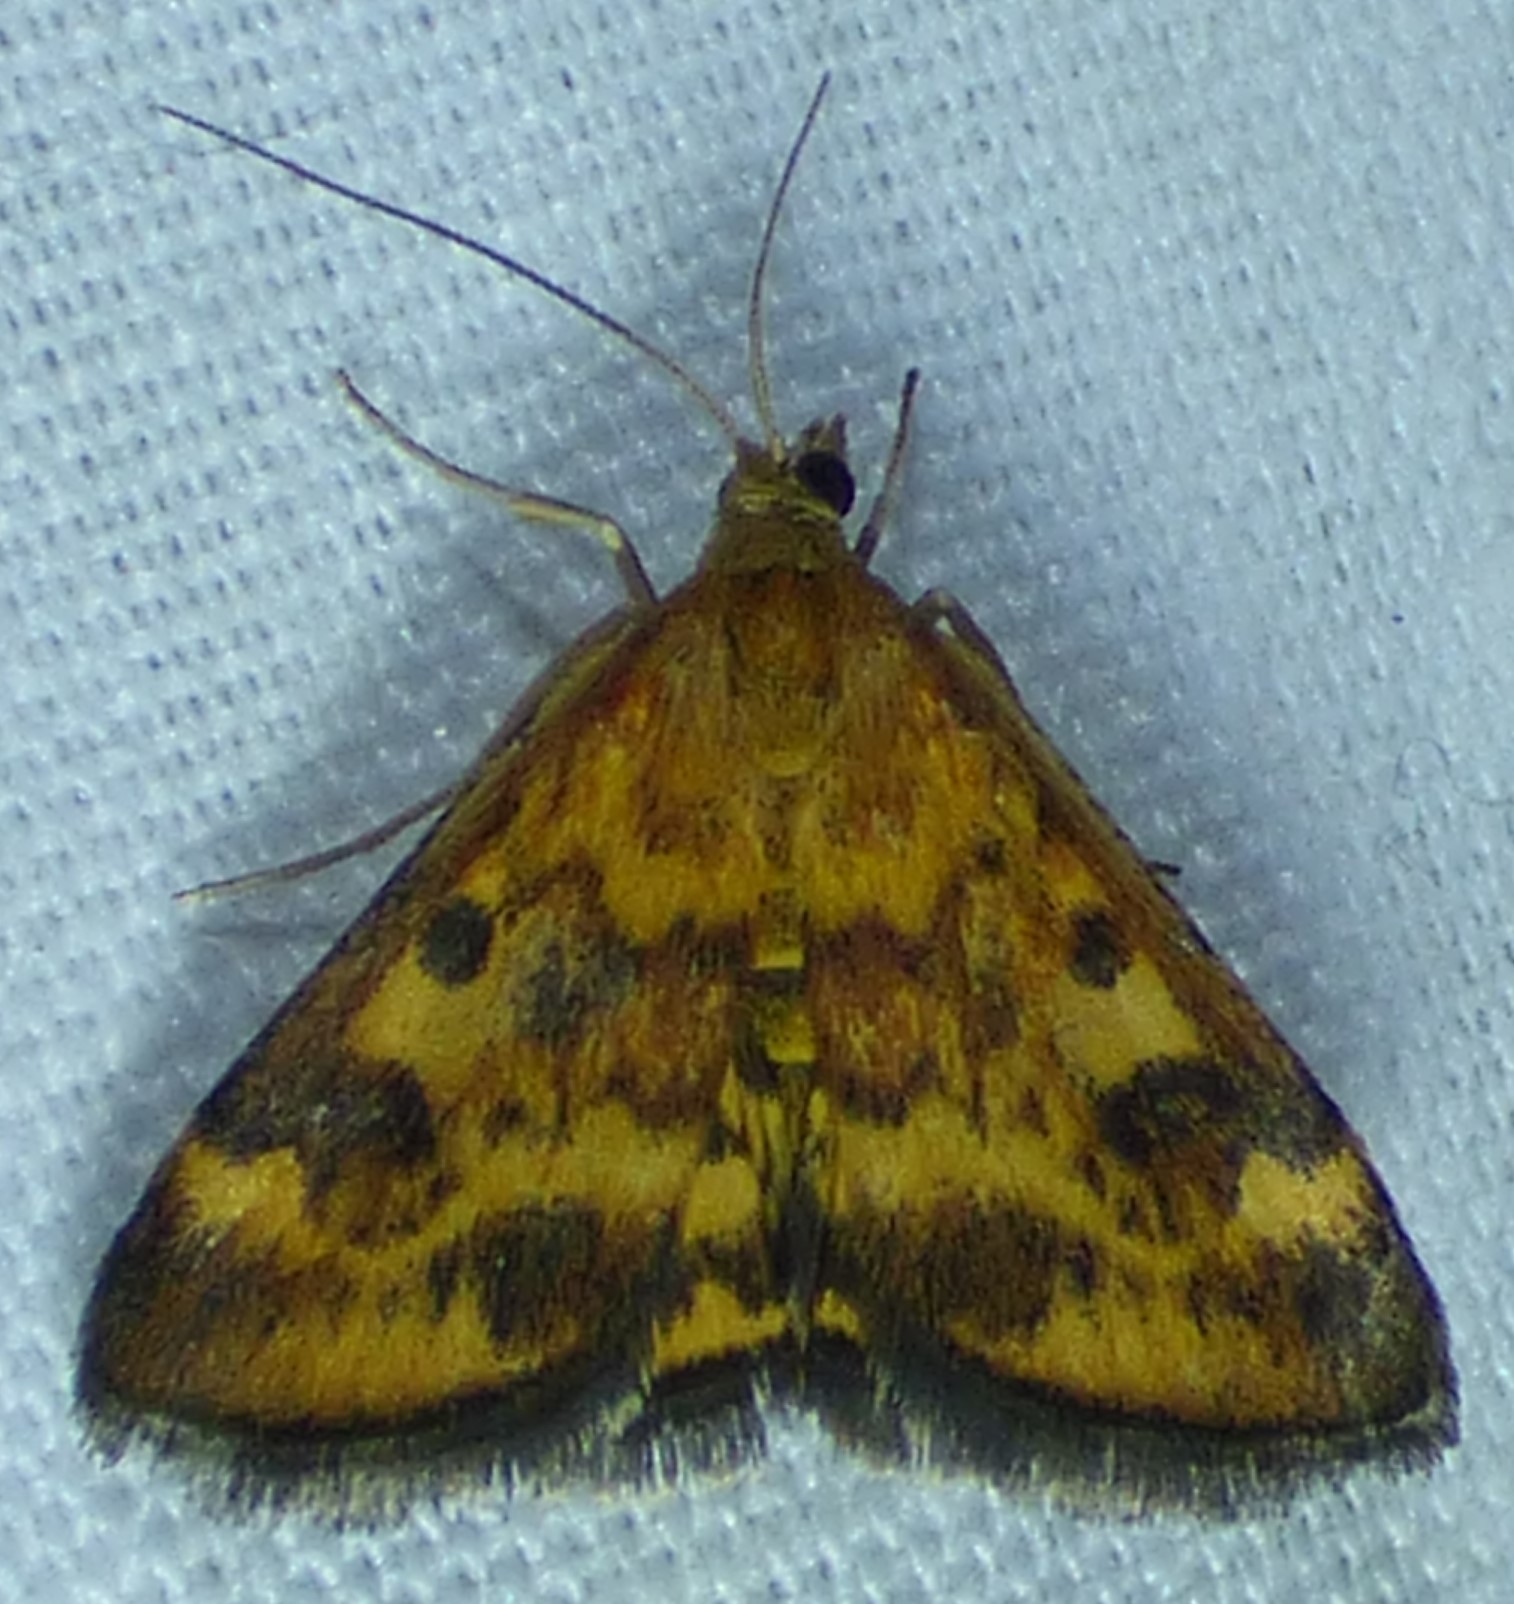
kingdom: Animalia
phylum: Arthropoda
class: Insecta
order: Lepidoptera
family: Crambidae
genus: Pyrausta
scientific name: Pyrausta subsequalis
